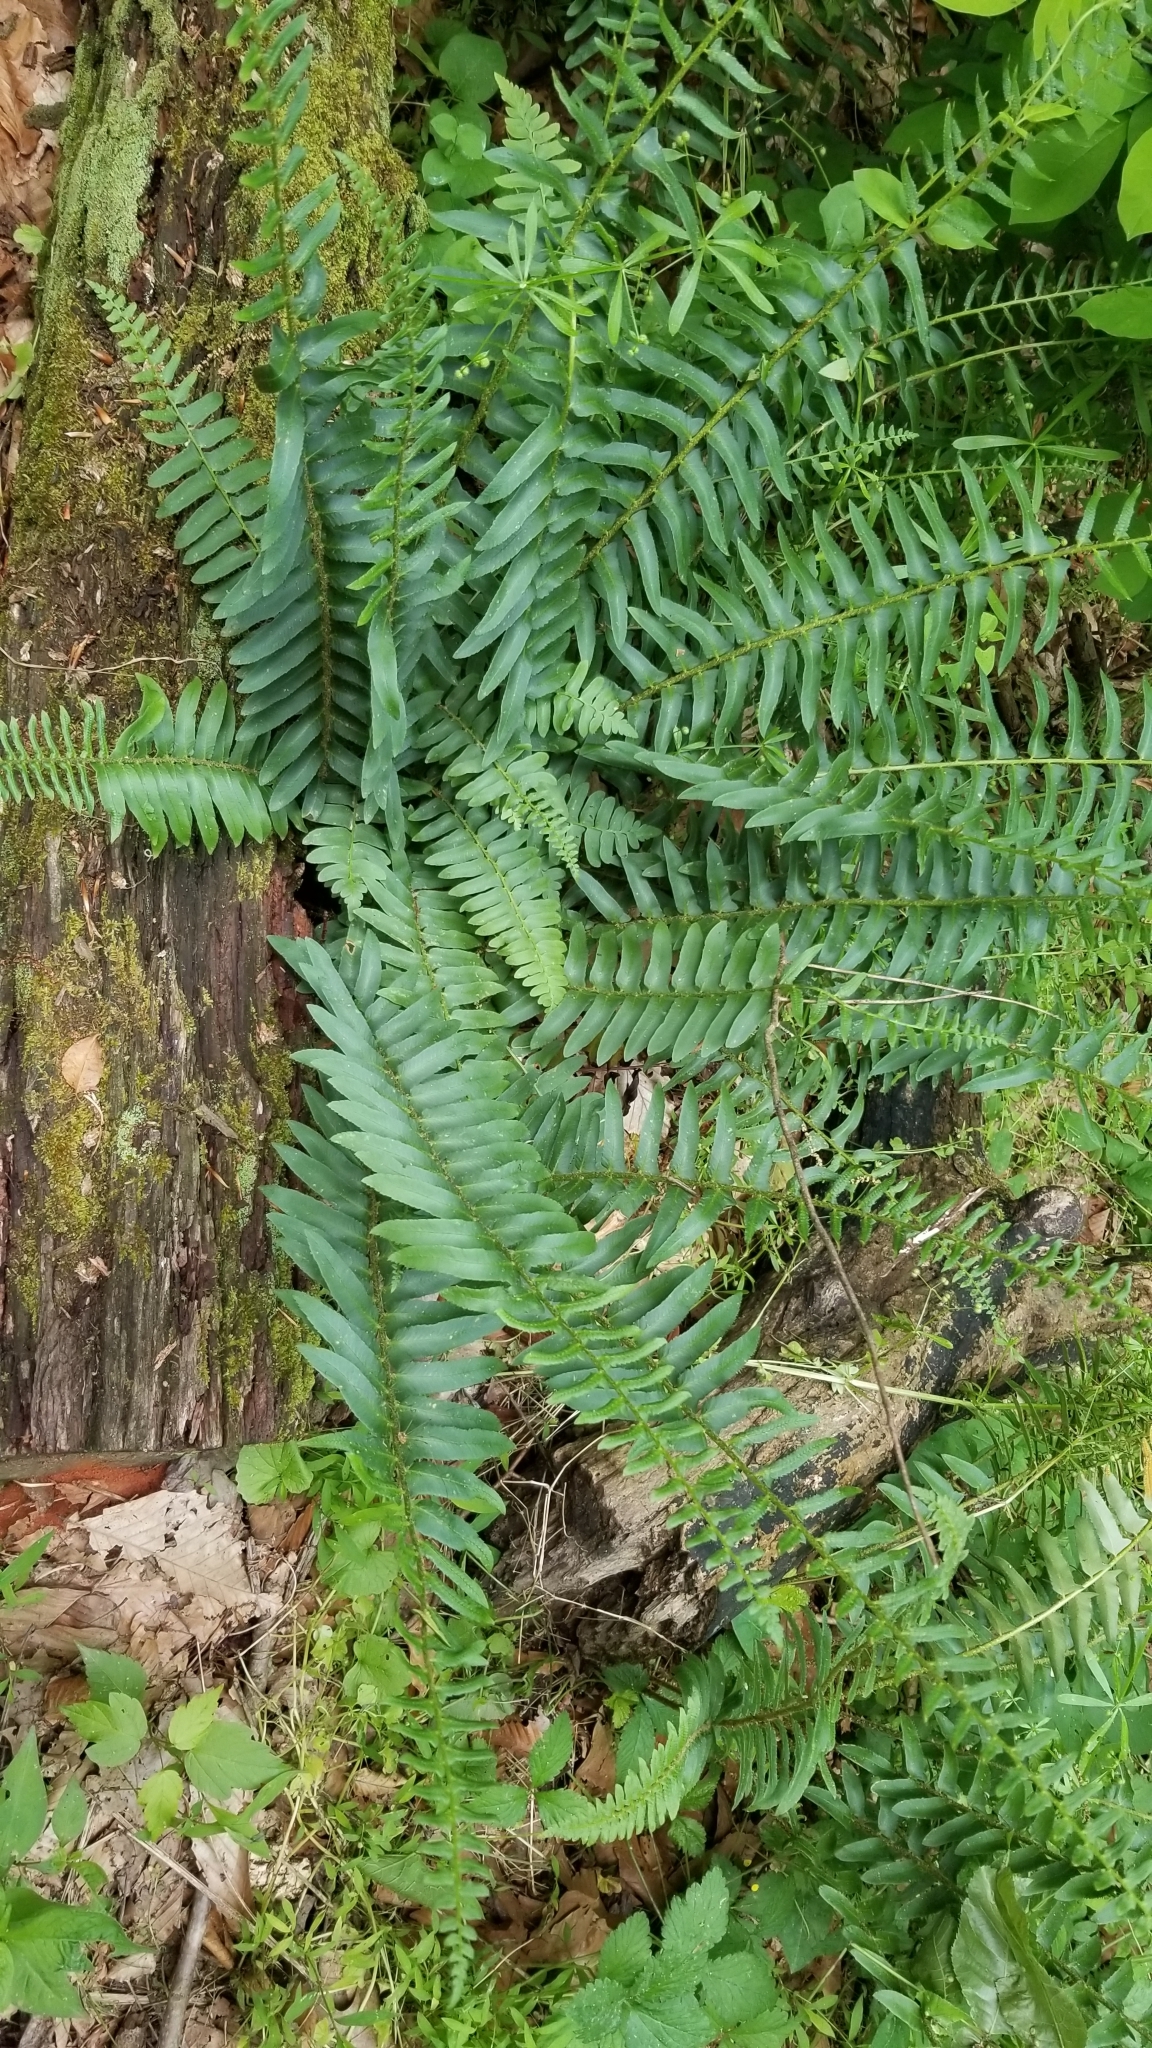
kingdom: Plantae
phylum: Tracheophyta
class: Polypodiopsida
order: Polypodiales
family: Dryopteridaceae
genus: Polystichum
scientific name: Polystichum acrostichoides
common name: Christmas fern
